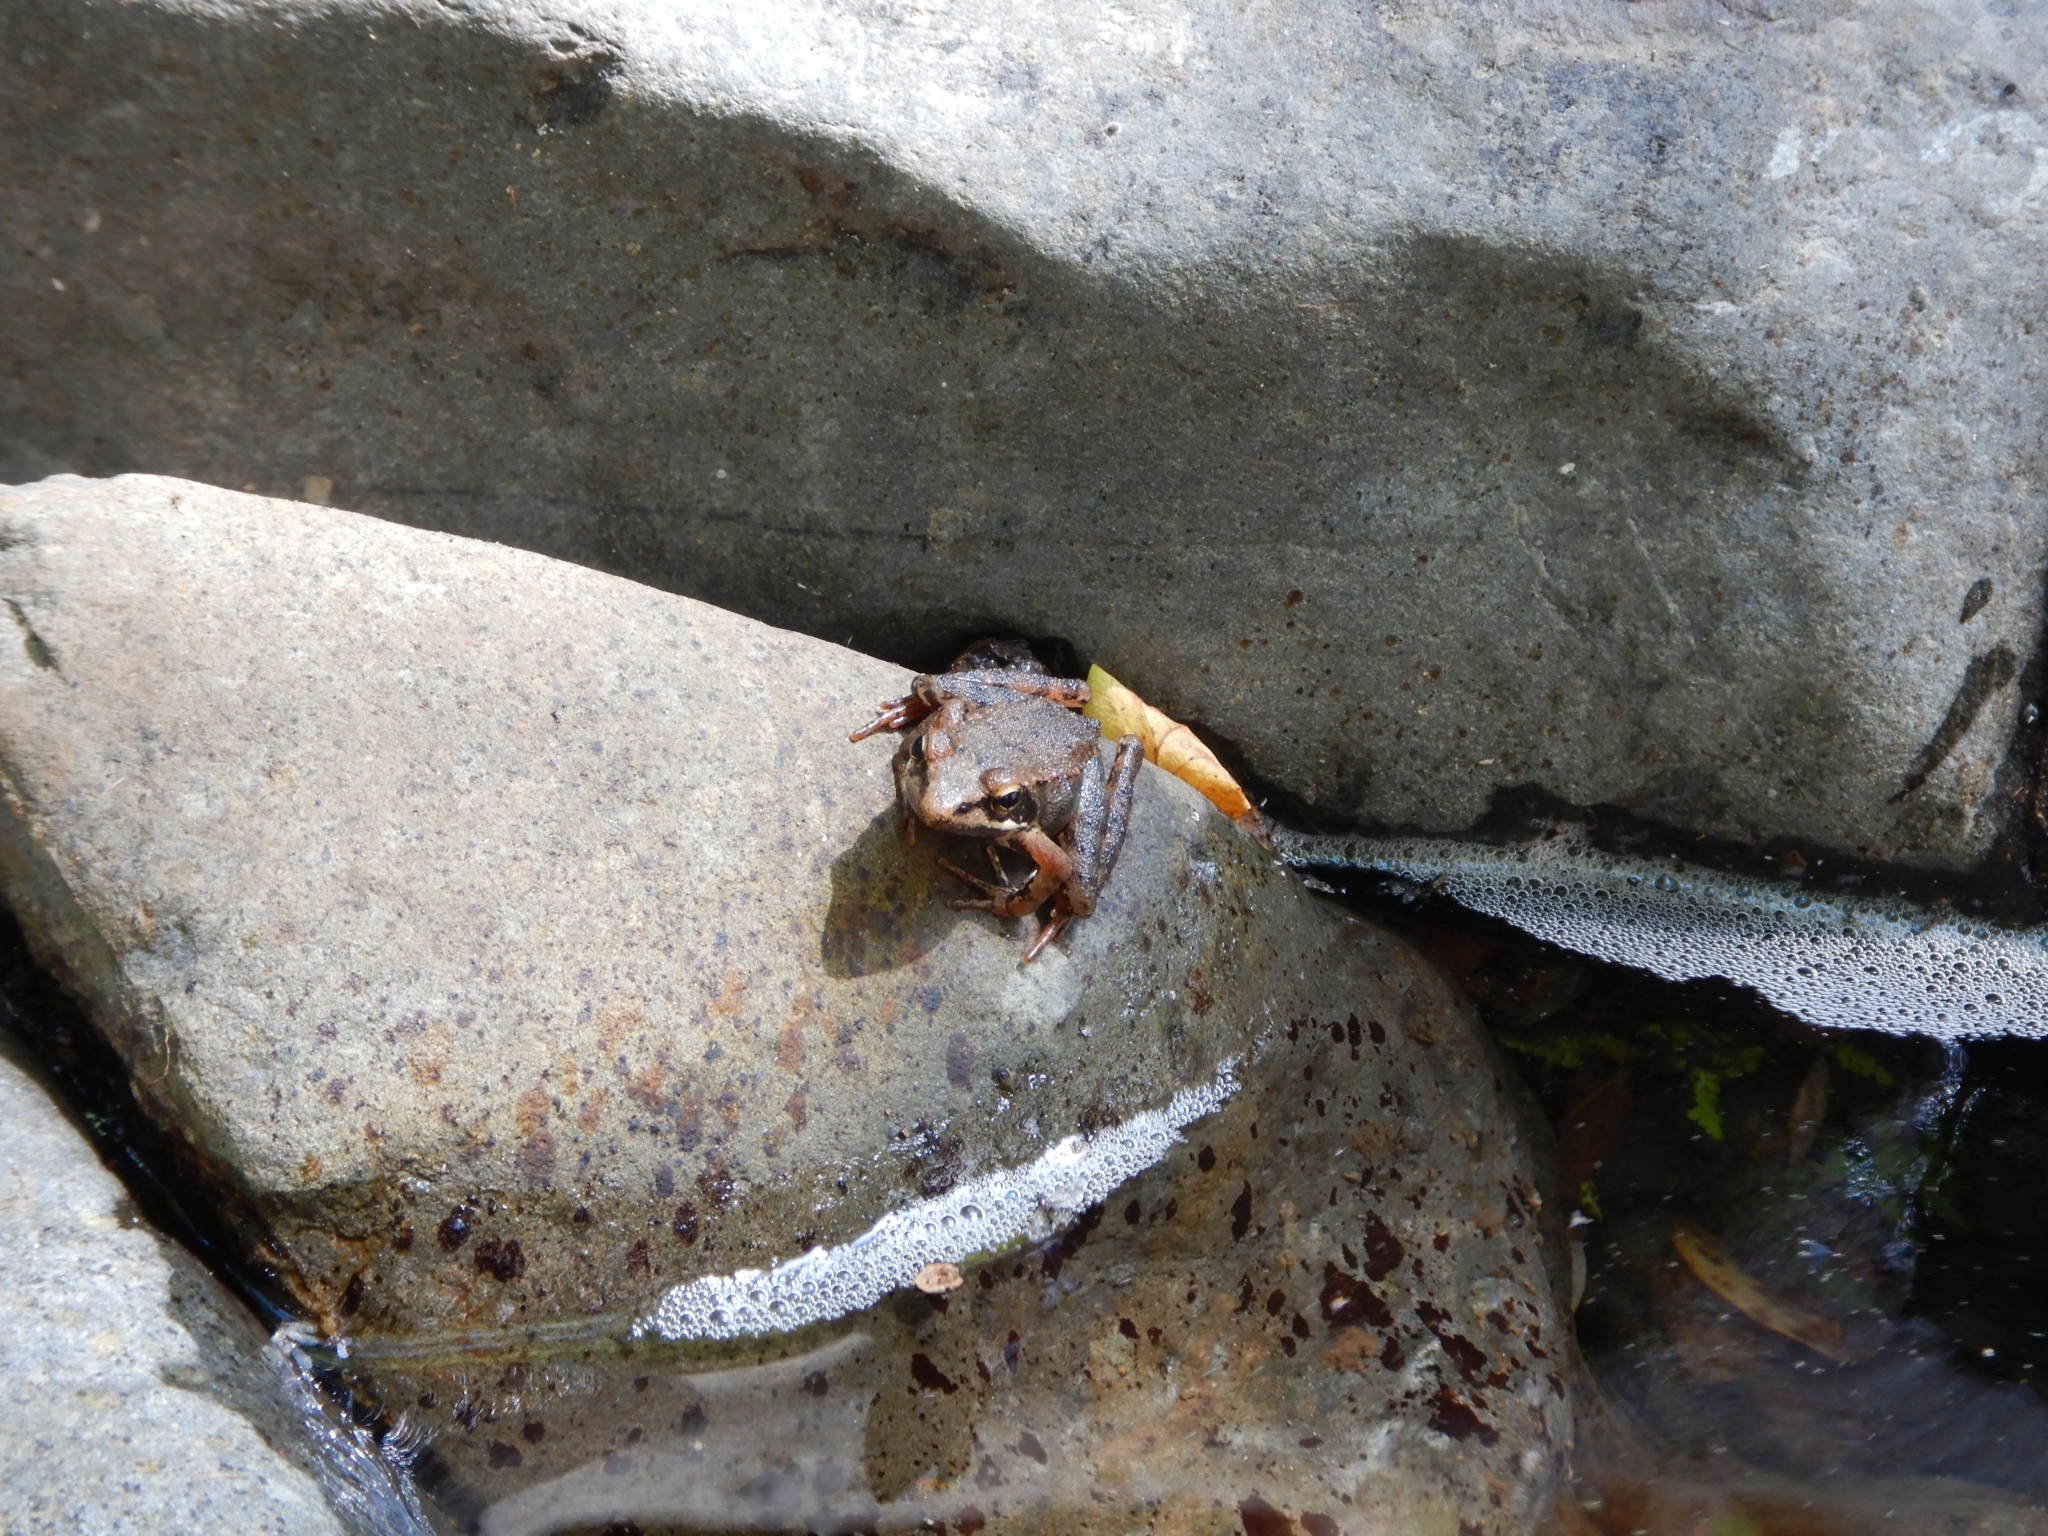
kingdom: Animalia
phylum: Chordata
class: Amphibia
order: Anura
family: Ranidae
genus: Rana
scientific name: Rana iberica
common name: Iberian frog
